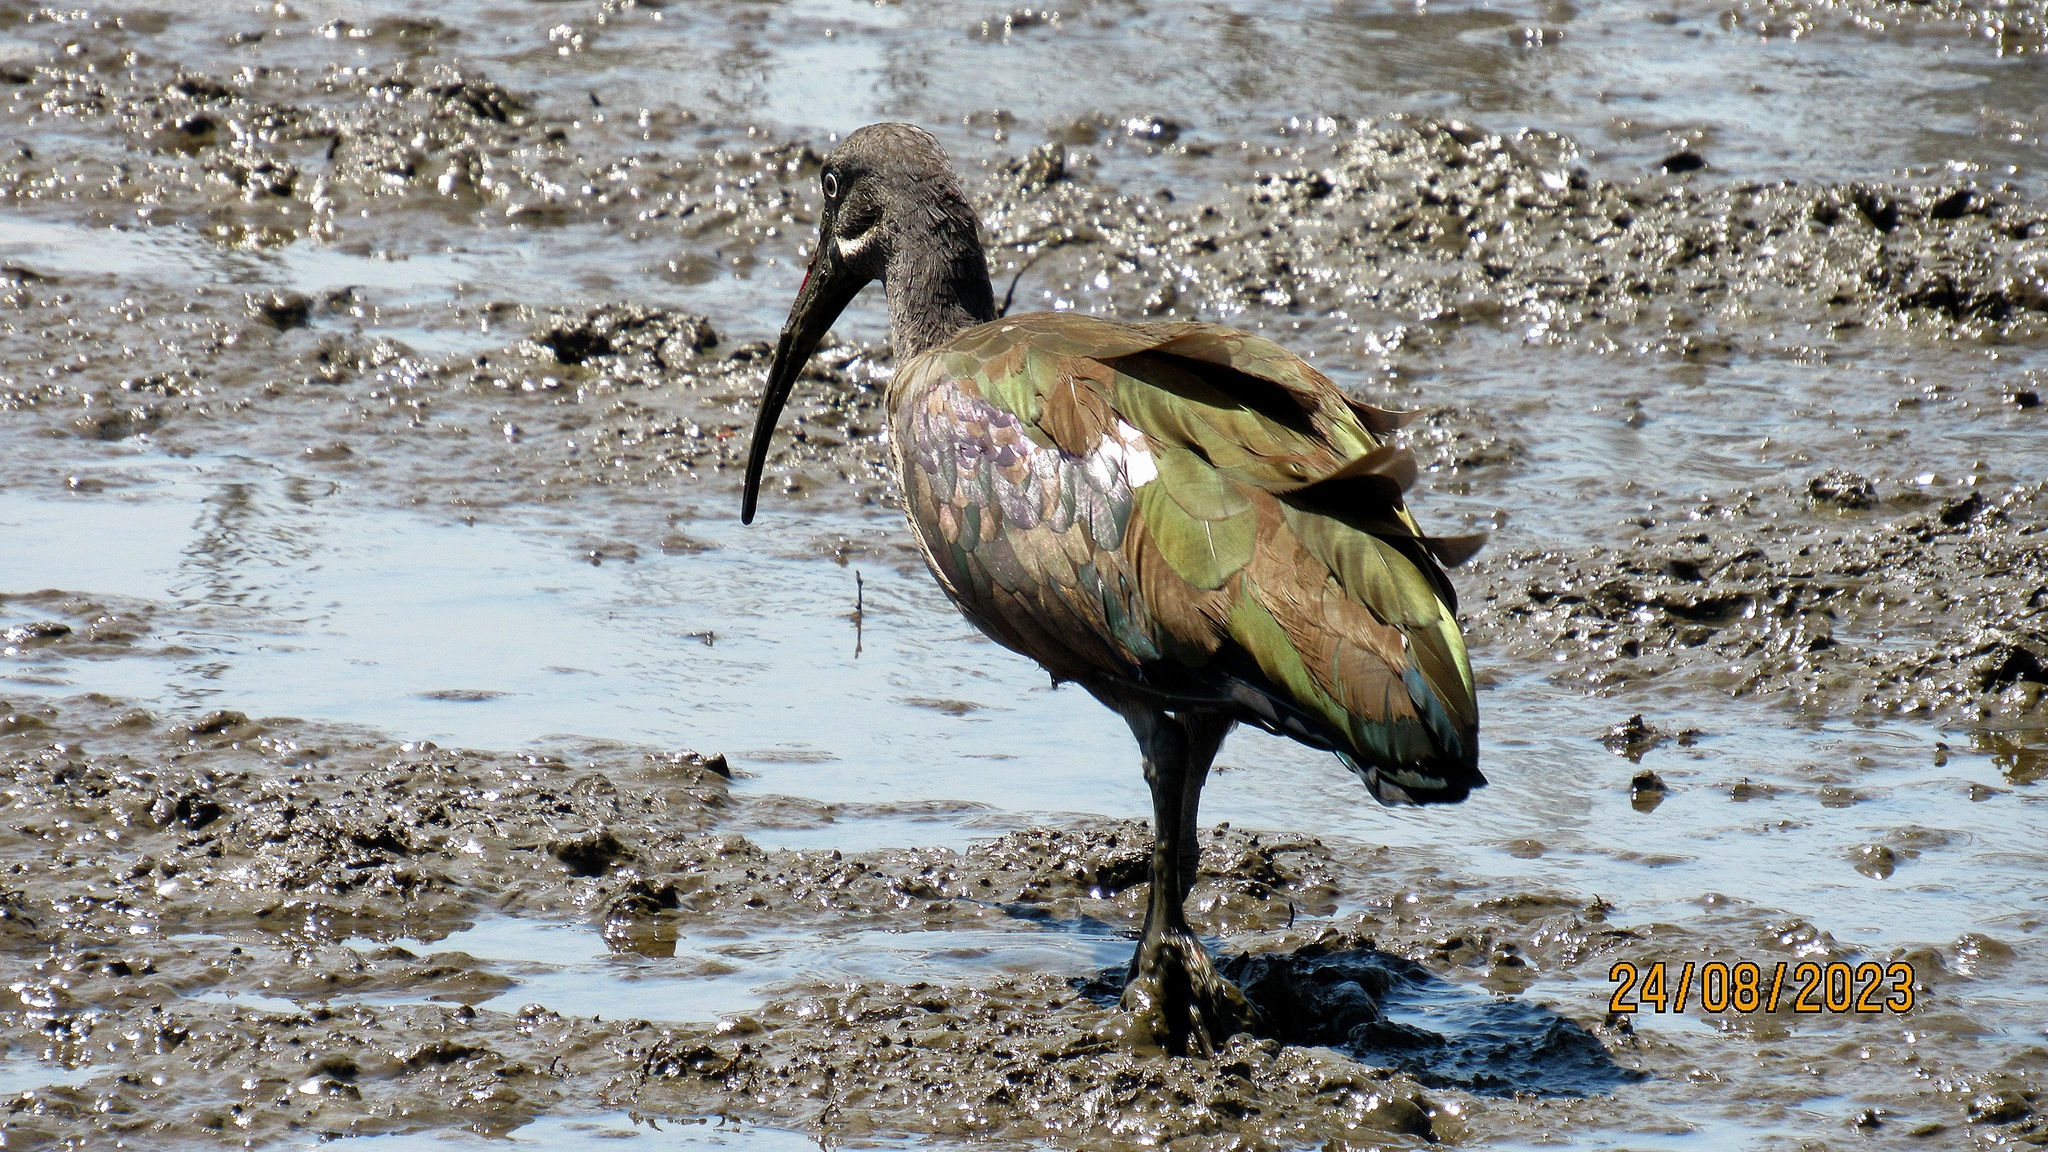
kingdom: Animalia
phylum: Chordata
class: Aves
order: Pelecaniformes
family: Threskiornithidae
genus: Bostrychia
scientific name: Bostrychia hagedash
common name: Hadada ibis
